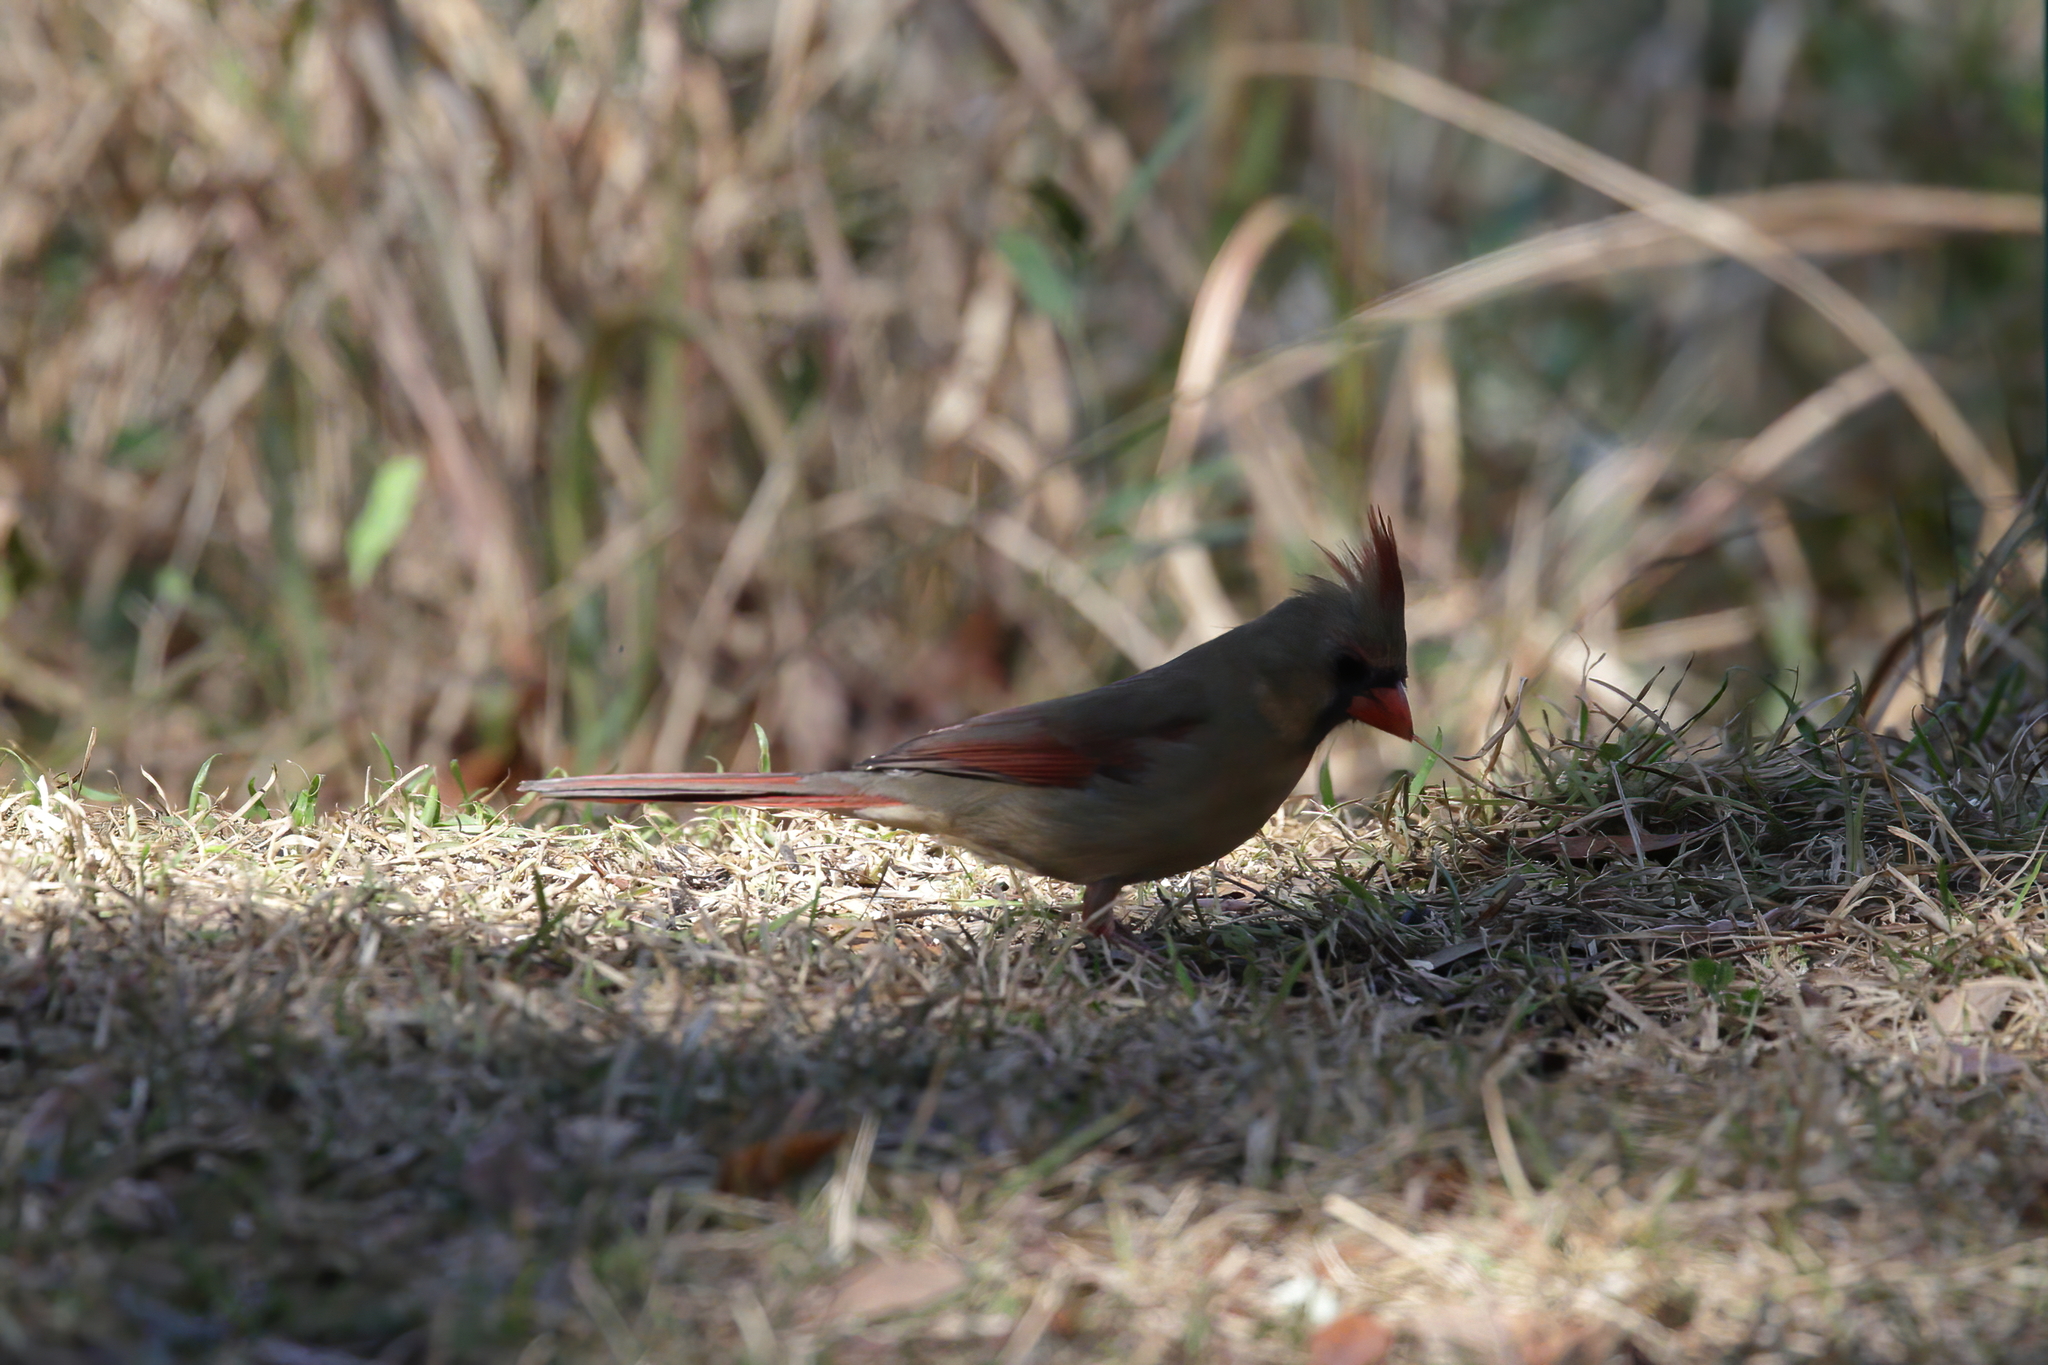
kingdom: Animalia
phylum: Chordata
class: Aves
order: Passeriformes
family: Cardinalidae
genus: Cardinalis
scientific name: Cardinalis cardinalis
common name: Northern cardinal
